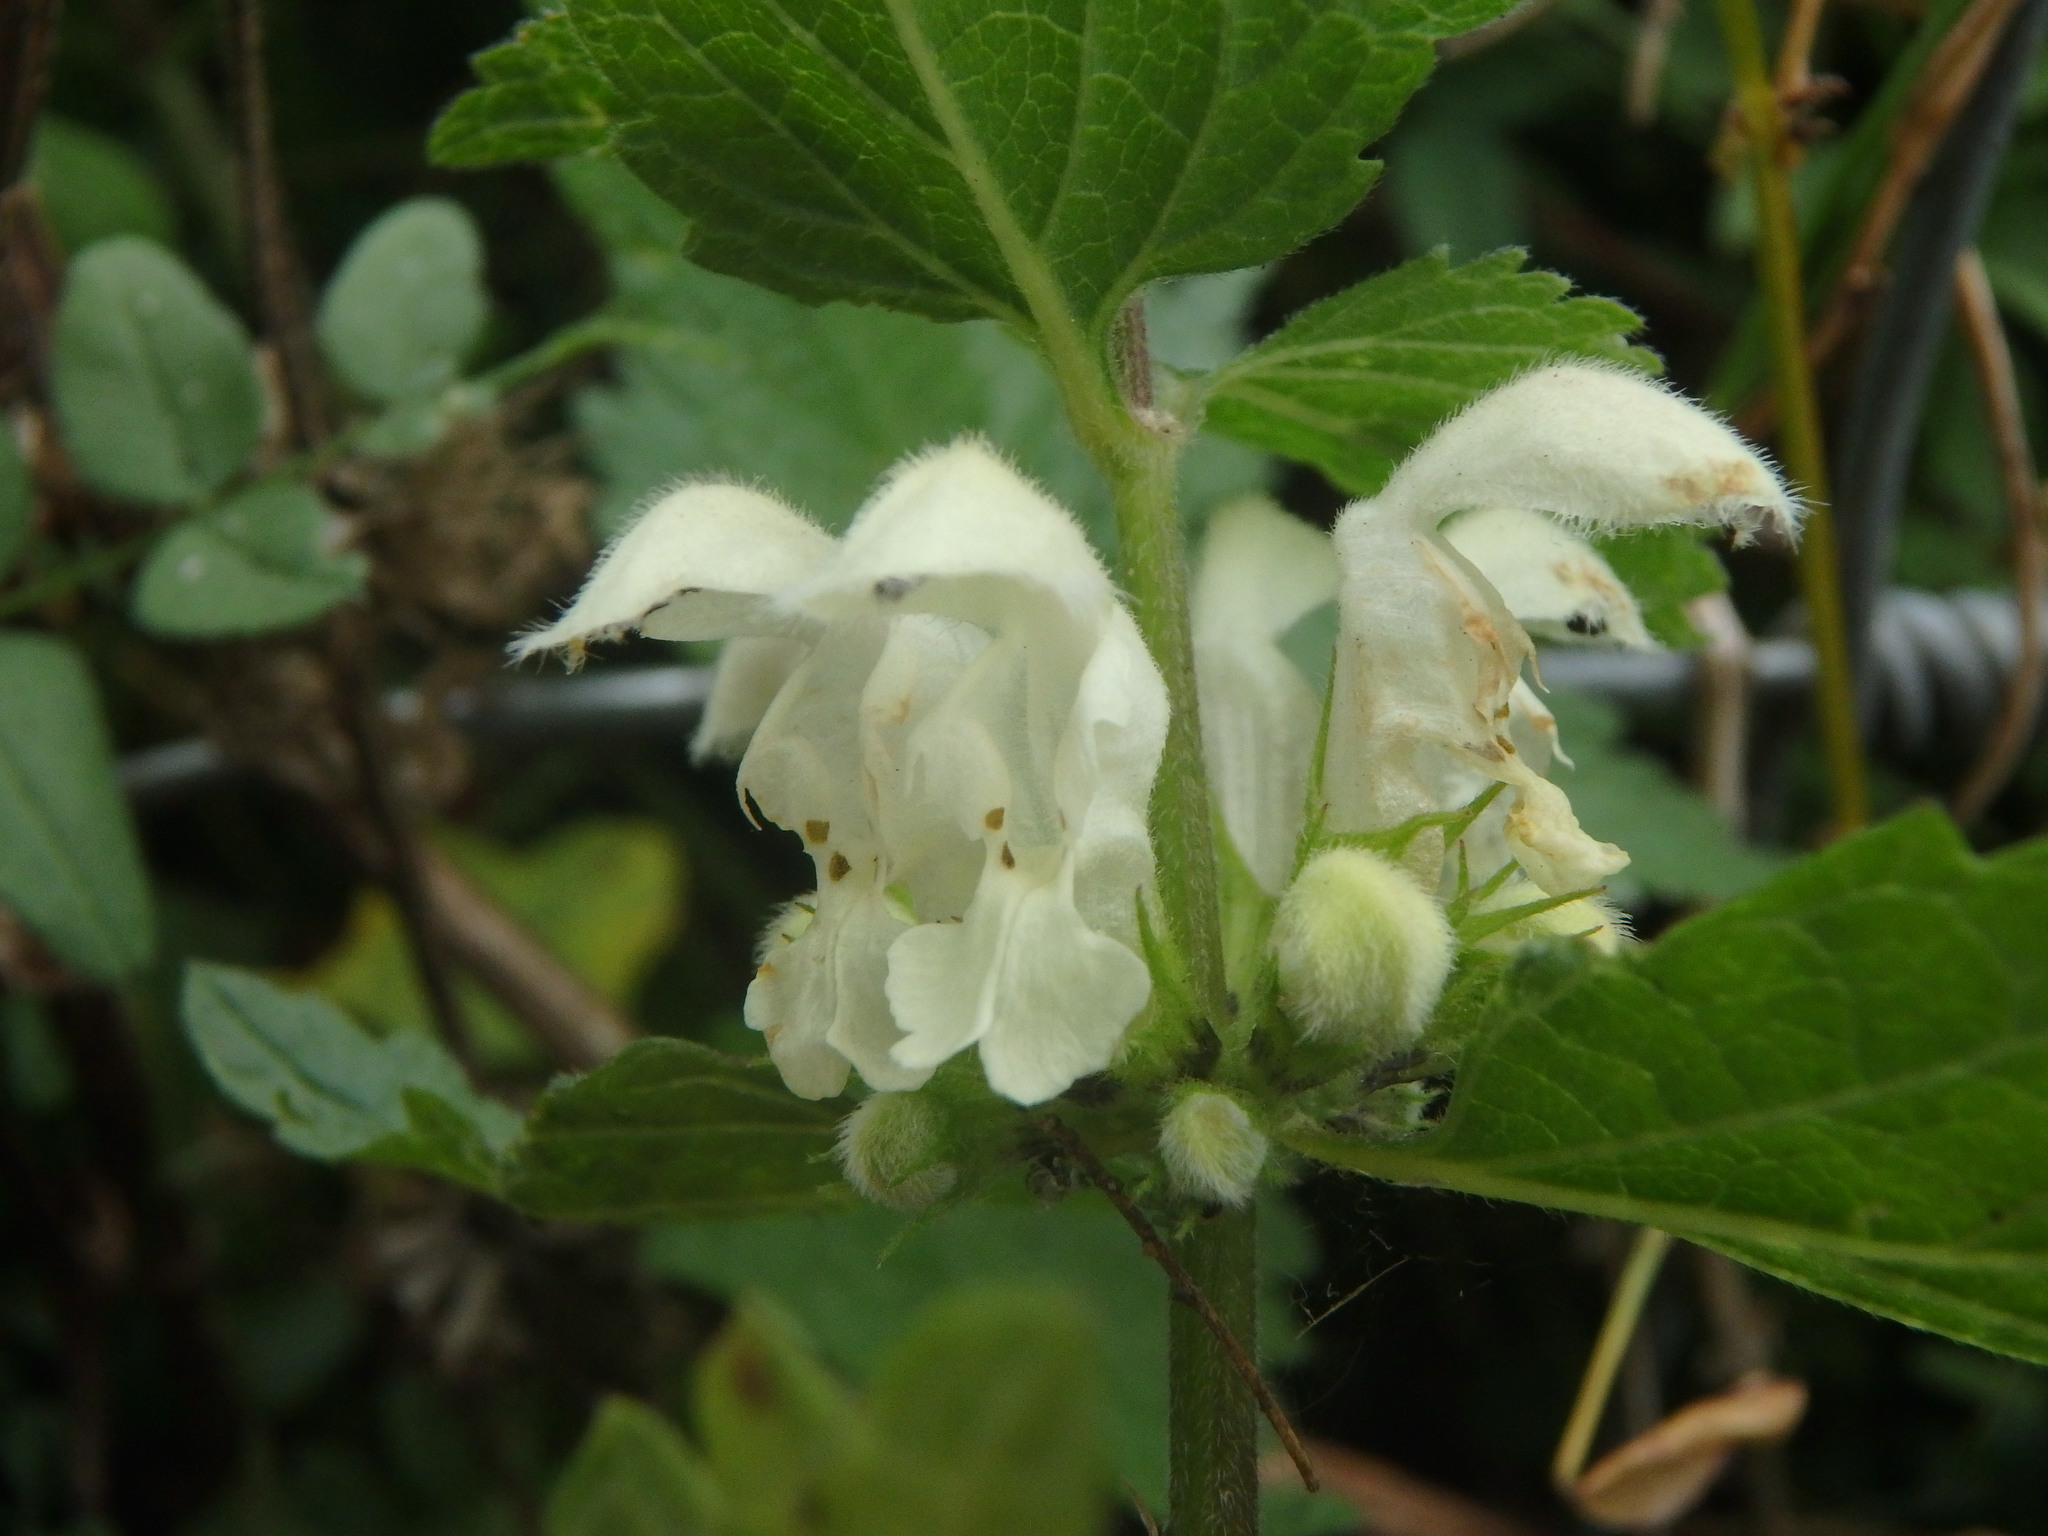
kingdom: Plantae
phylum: Tracheophyta
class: Magnoliopsida
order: Lamiales
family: Lamiaceae
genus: Lamium
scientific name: Lamium album
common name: White dead-nettle
